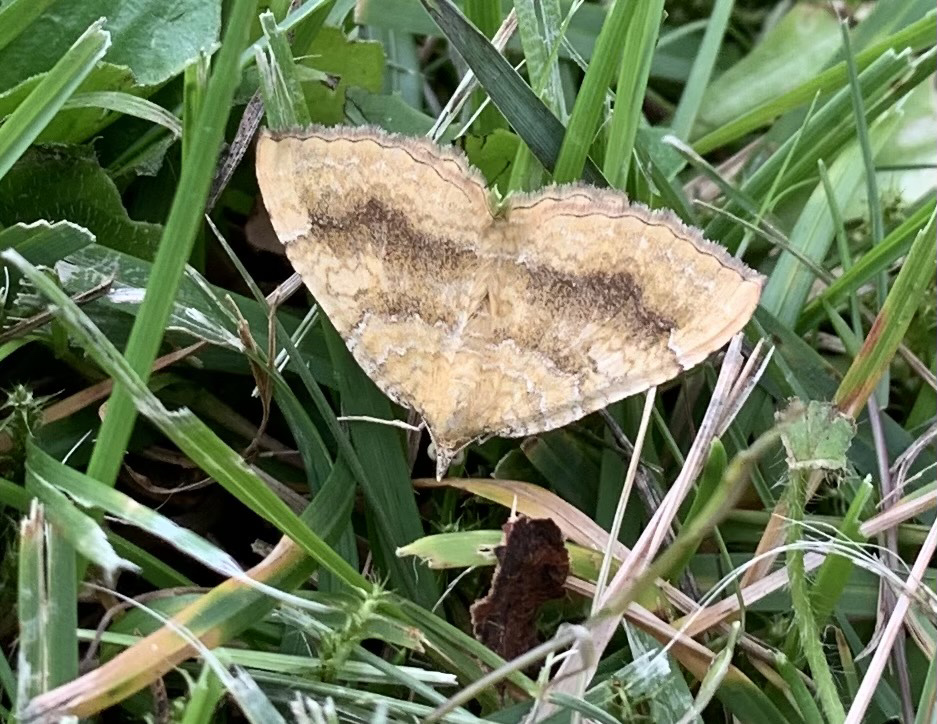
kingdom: Animalia
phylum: Arthropoda
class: Insecta
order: Lepidoptera
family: Geometridae
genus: Camptogramma
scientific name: Camptogramma bilineata
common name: Yellow shell
